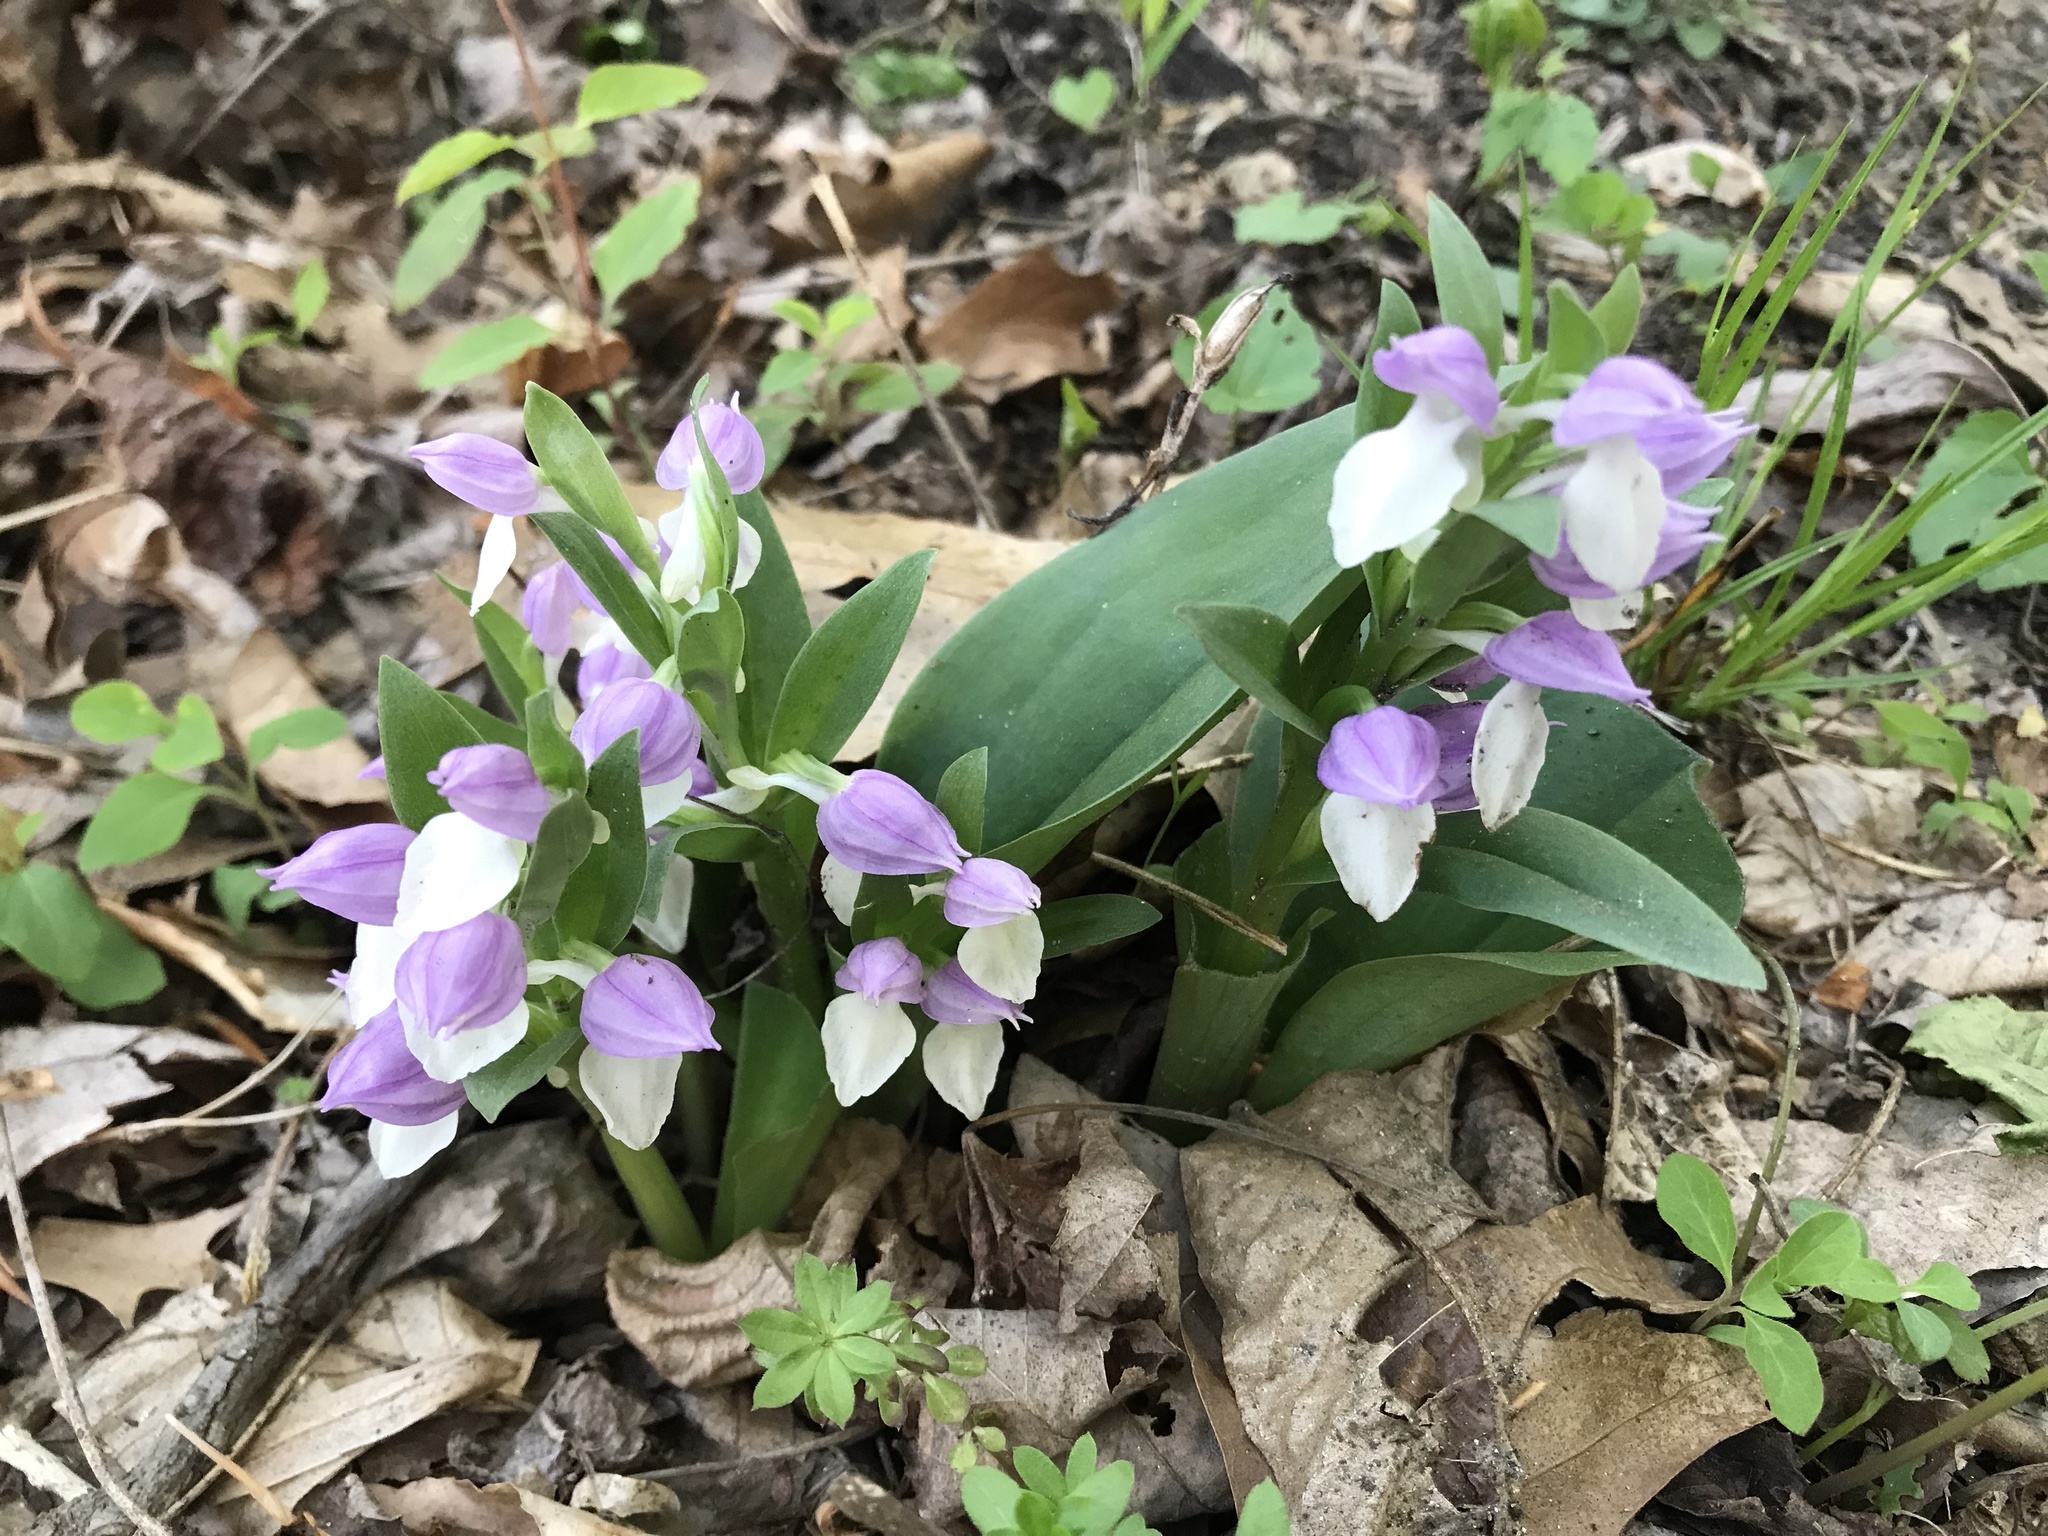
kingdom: Plantae
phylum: Tracheophyta
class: Liliopsida
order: Asparagales
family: Orchidaceae
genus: Galearis
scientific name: Galearis spectabilis
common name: Purple-hooded orchis
